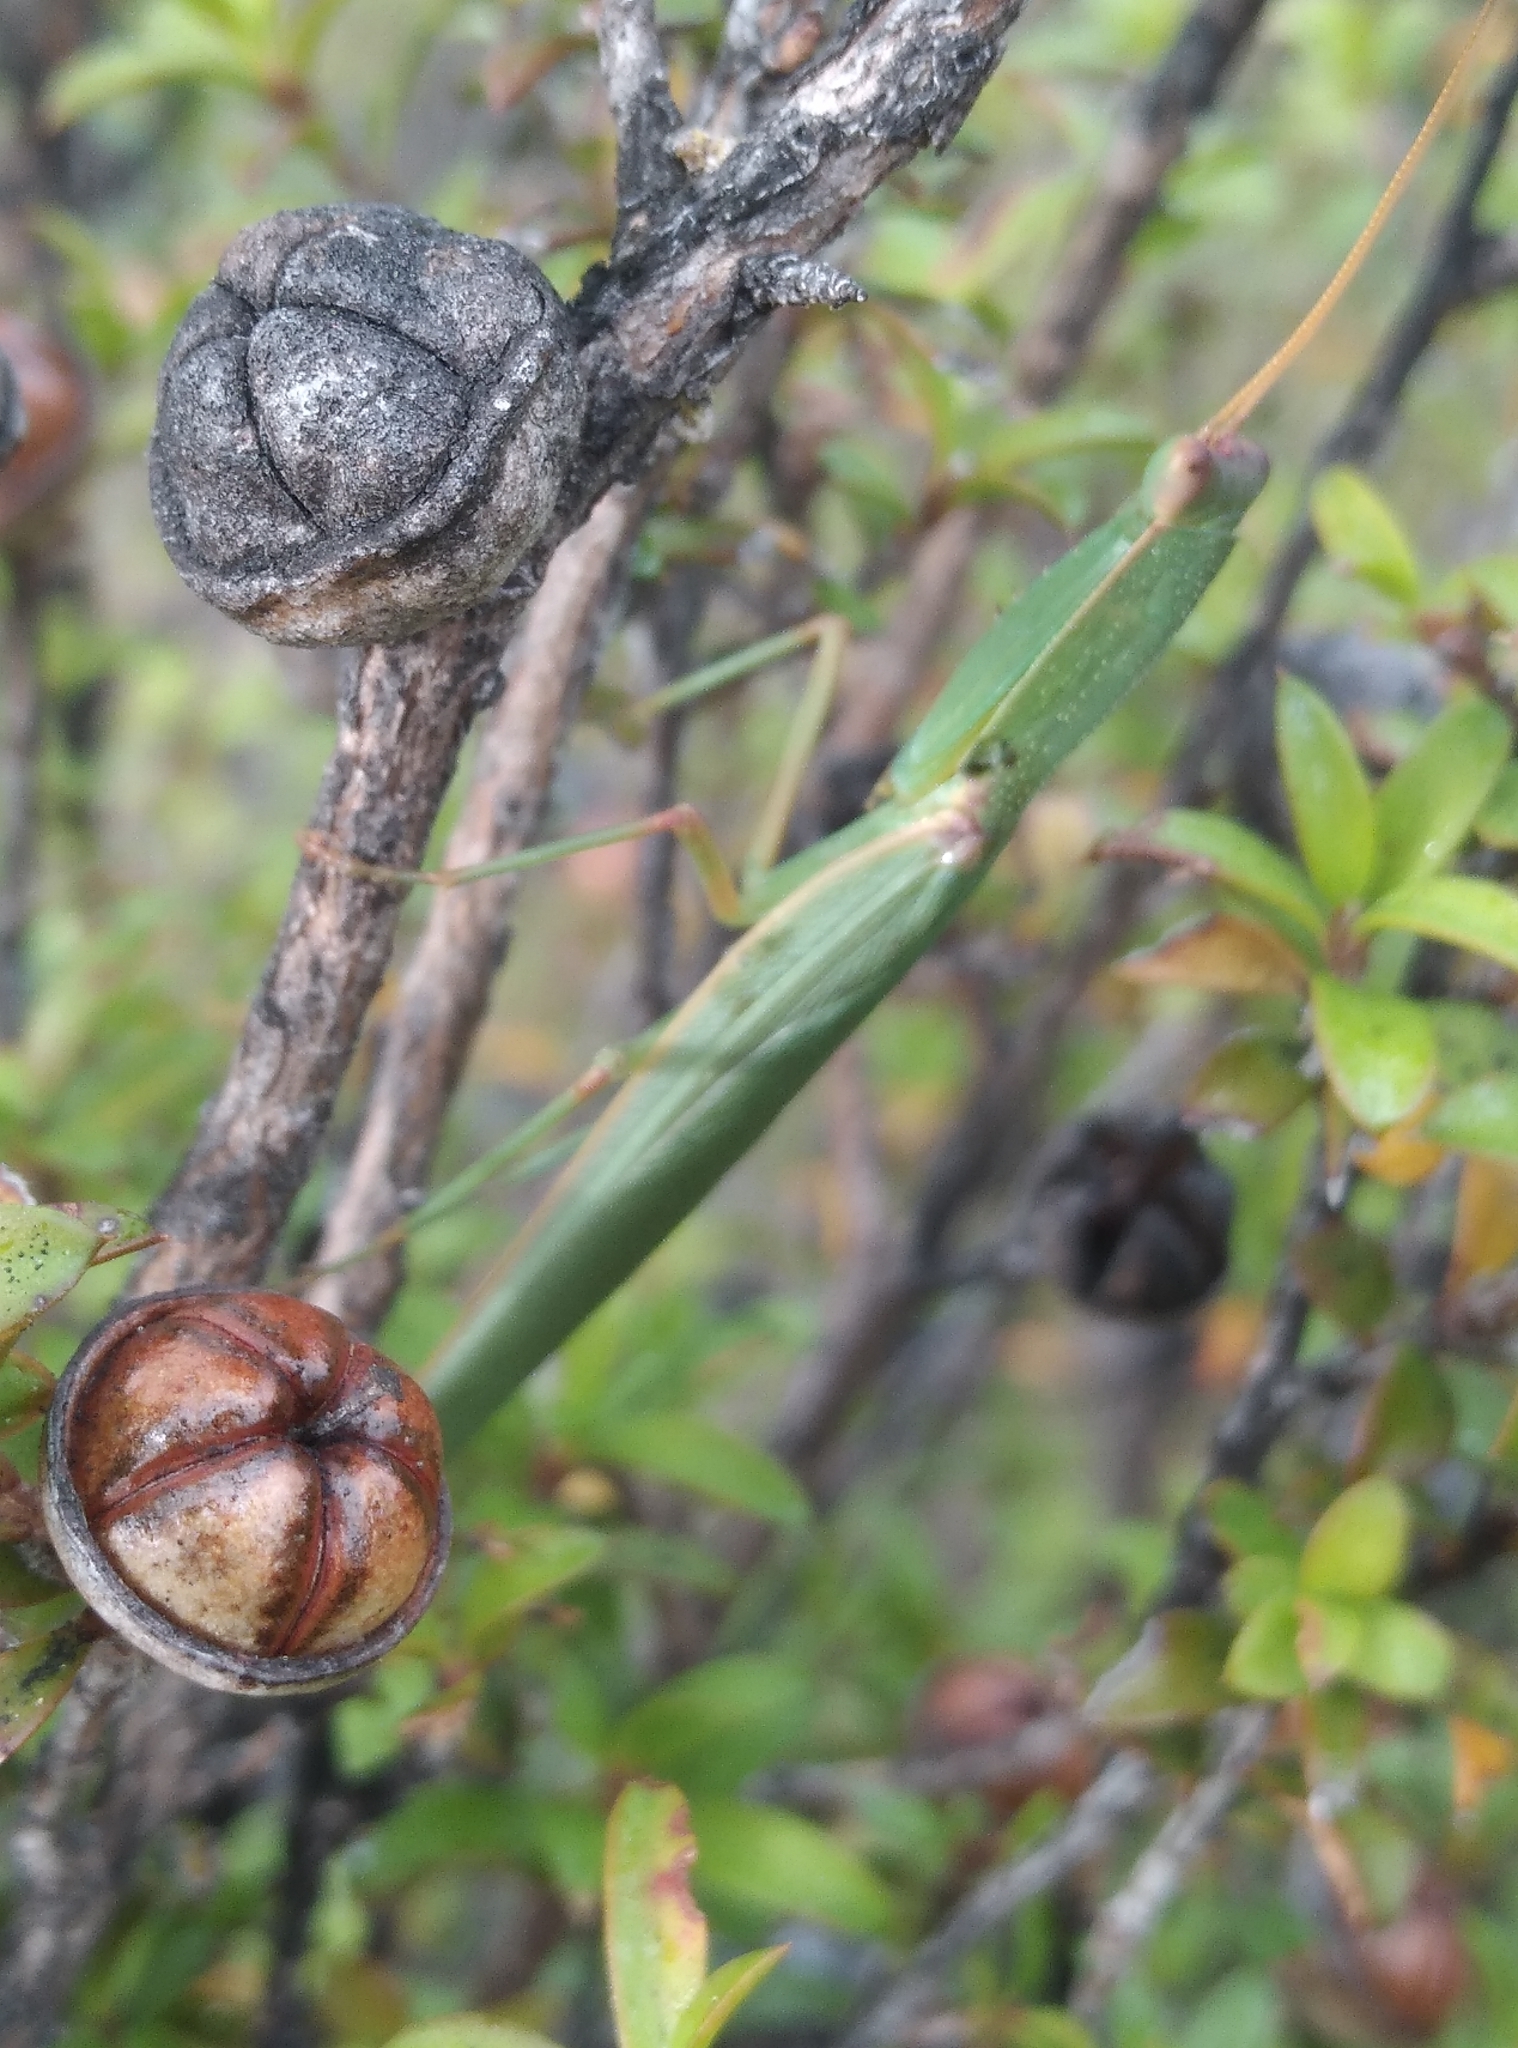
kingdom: Animalia
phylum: Arthropoda
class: Insecta
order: Mantodea
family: Mantidae
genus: Orthodera
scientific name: Orthodera novaezealandiae
